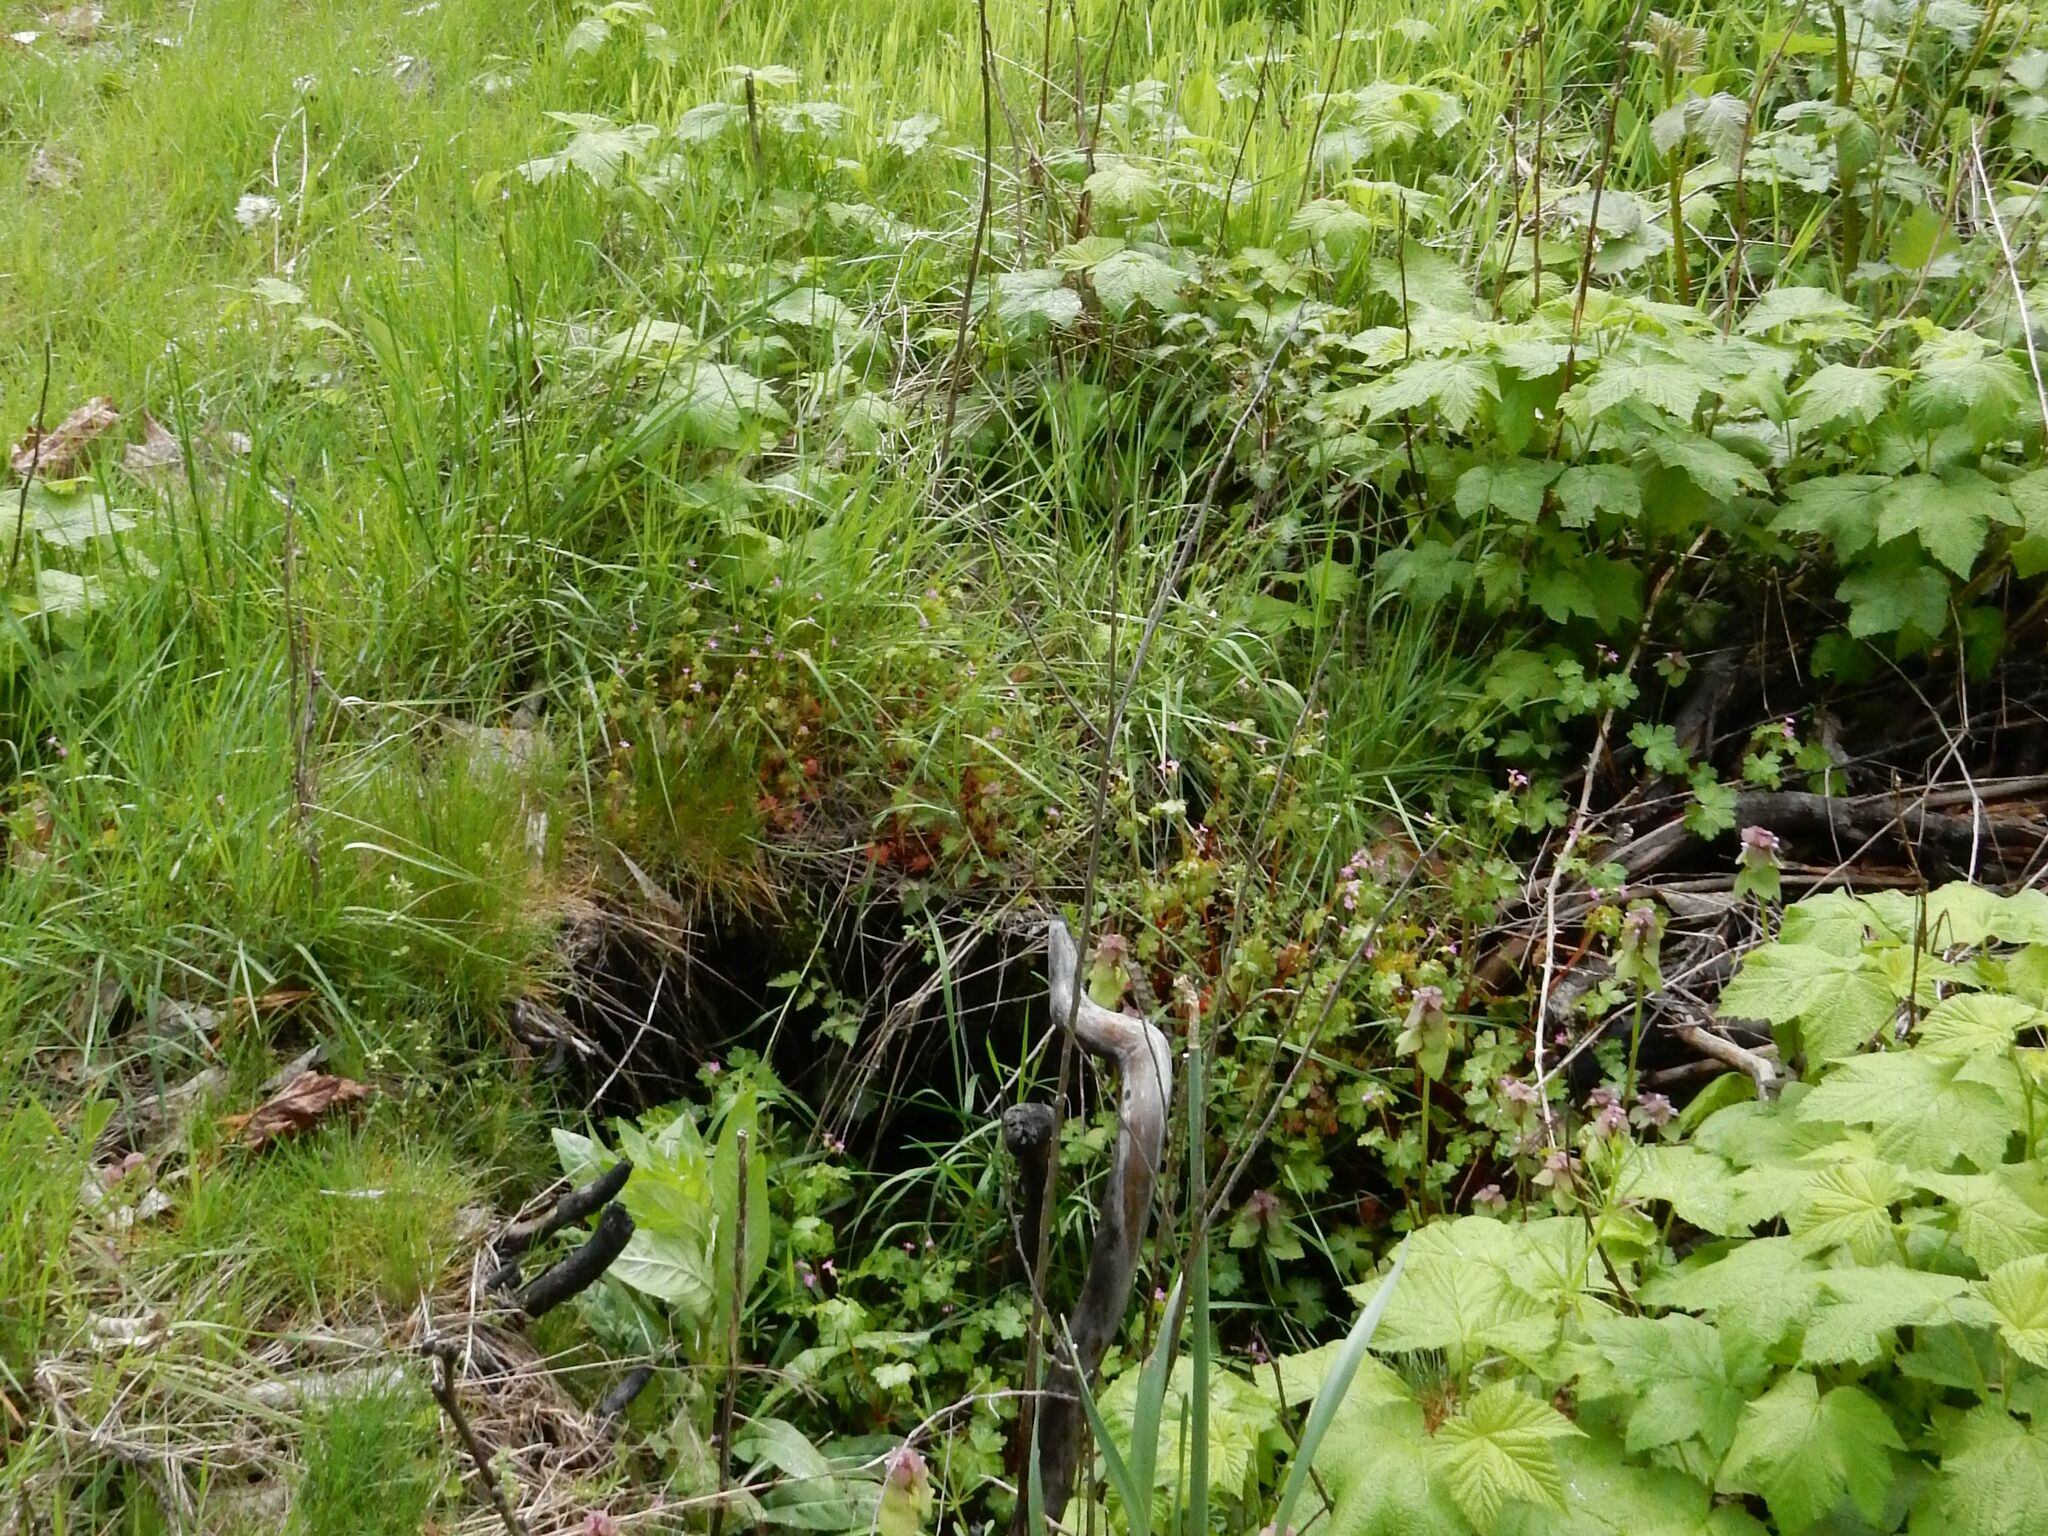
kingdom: Plantae
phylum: Tracheophyta
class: Magnoliopsida
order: Geraniales
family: Geraniaceae
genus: Geranium
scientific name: Geranium lucidum
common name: Shining crane's-bill
